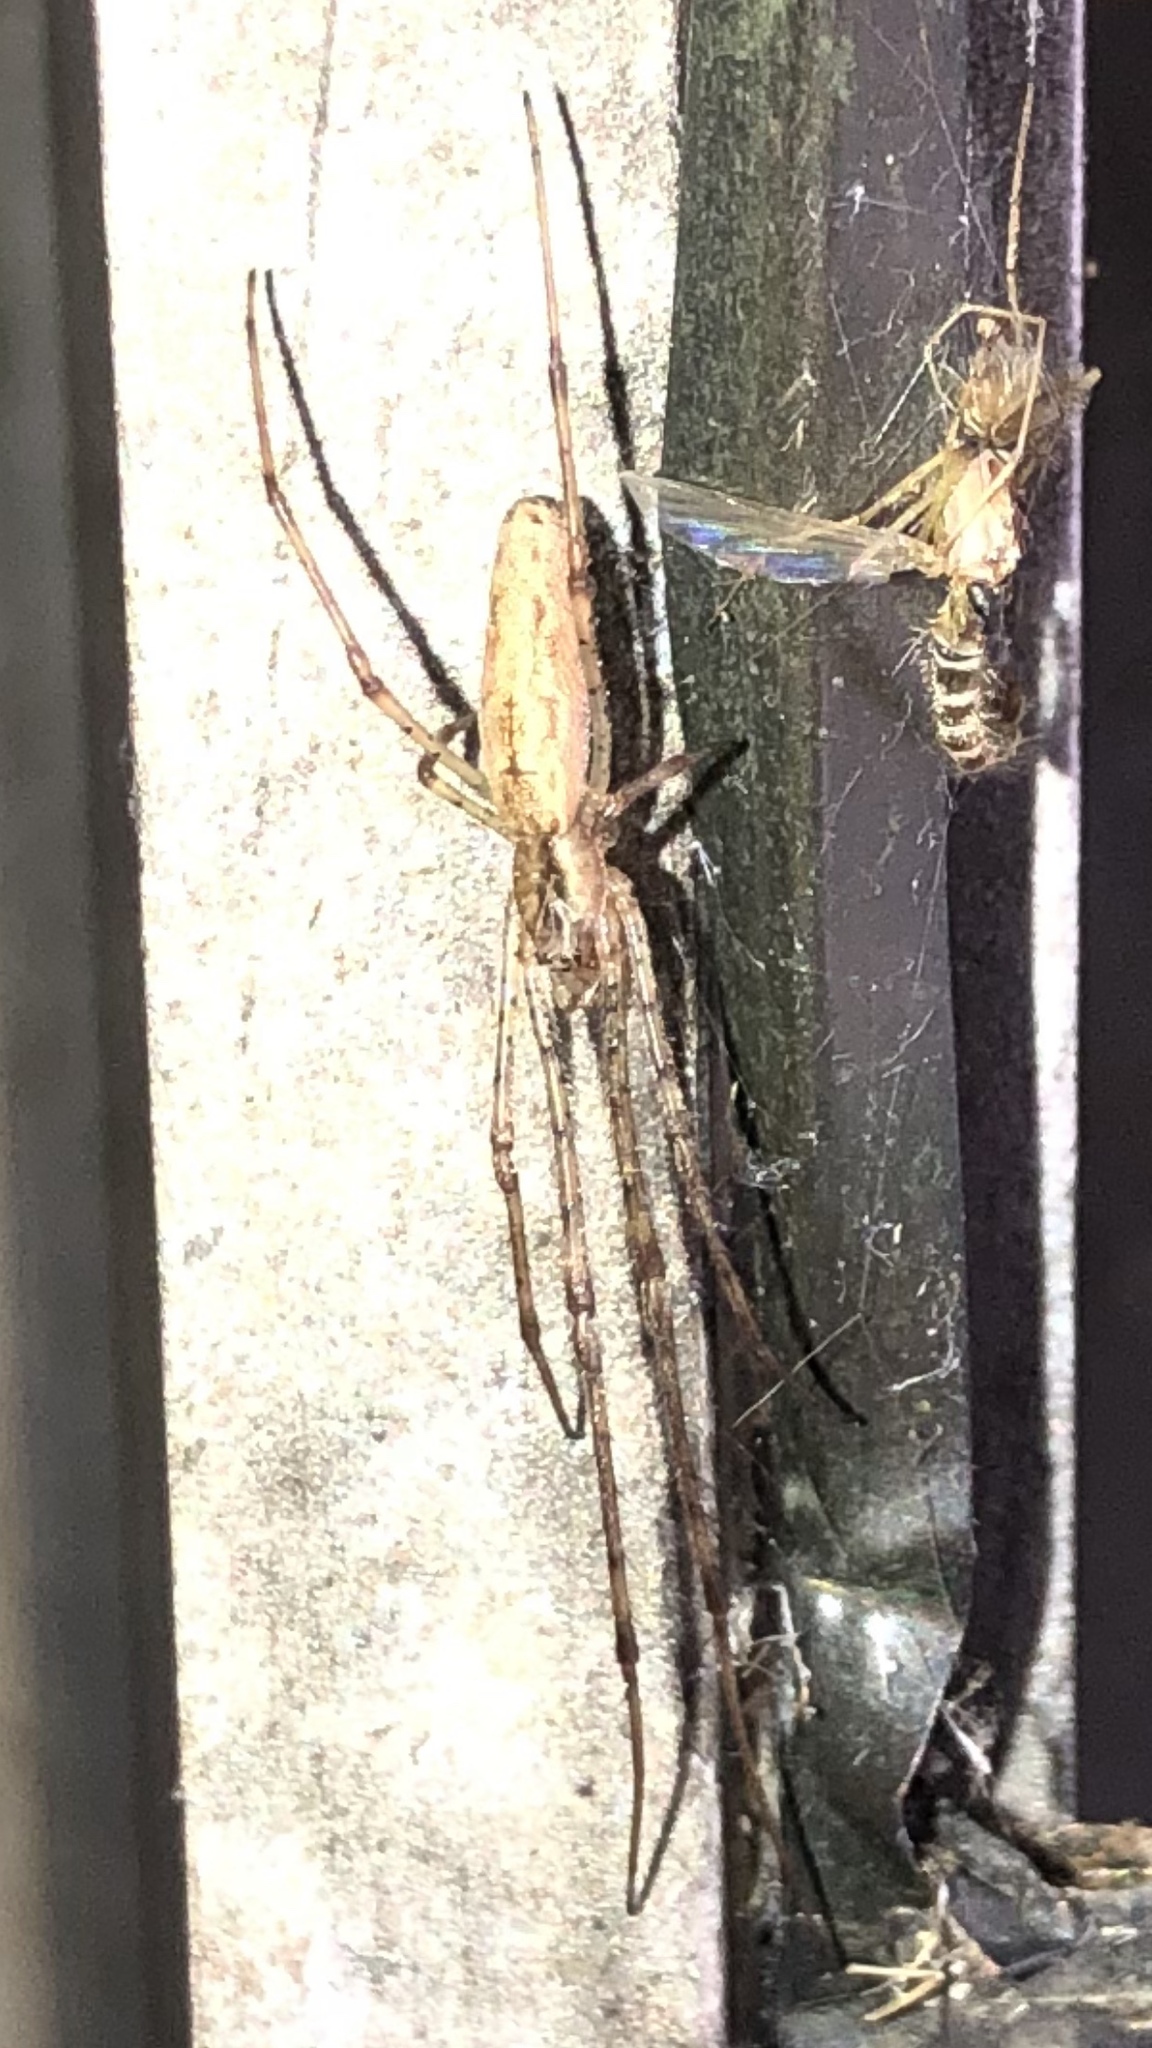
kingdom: Animalia
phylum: Arthropoda
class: Arachnida
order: Araneae
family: Tetragnathidae
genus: Tetragnatha
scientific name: Tetragnatha
